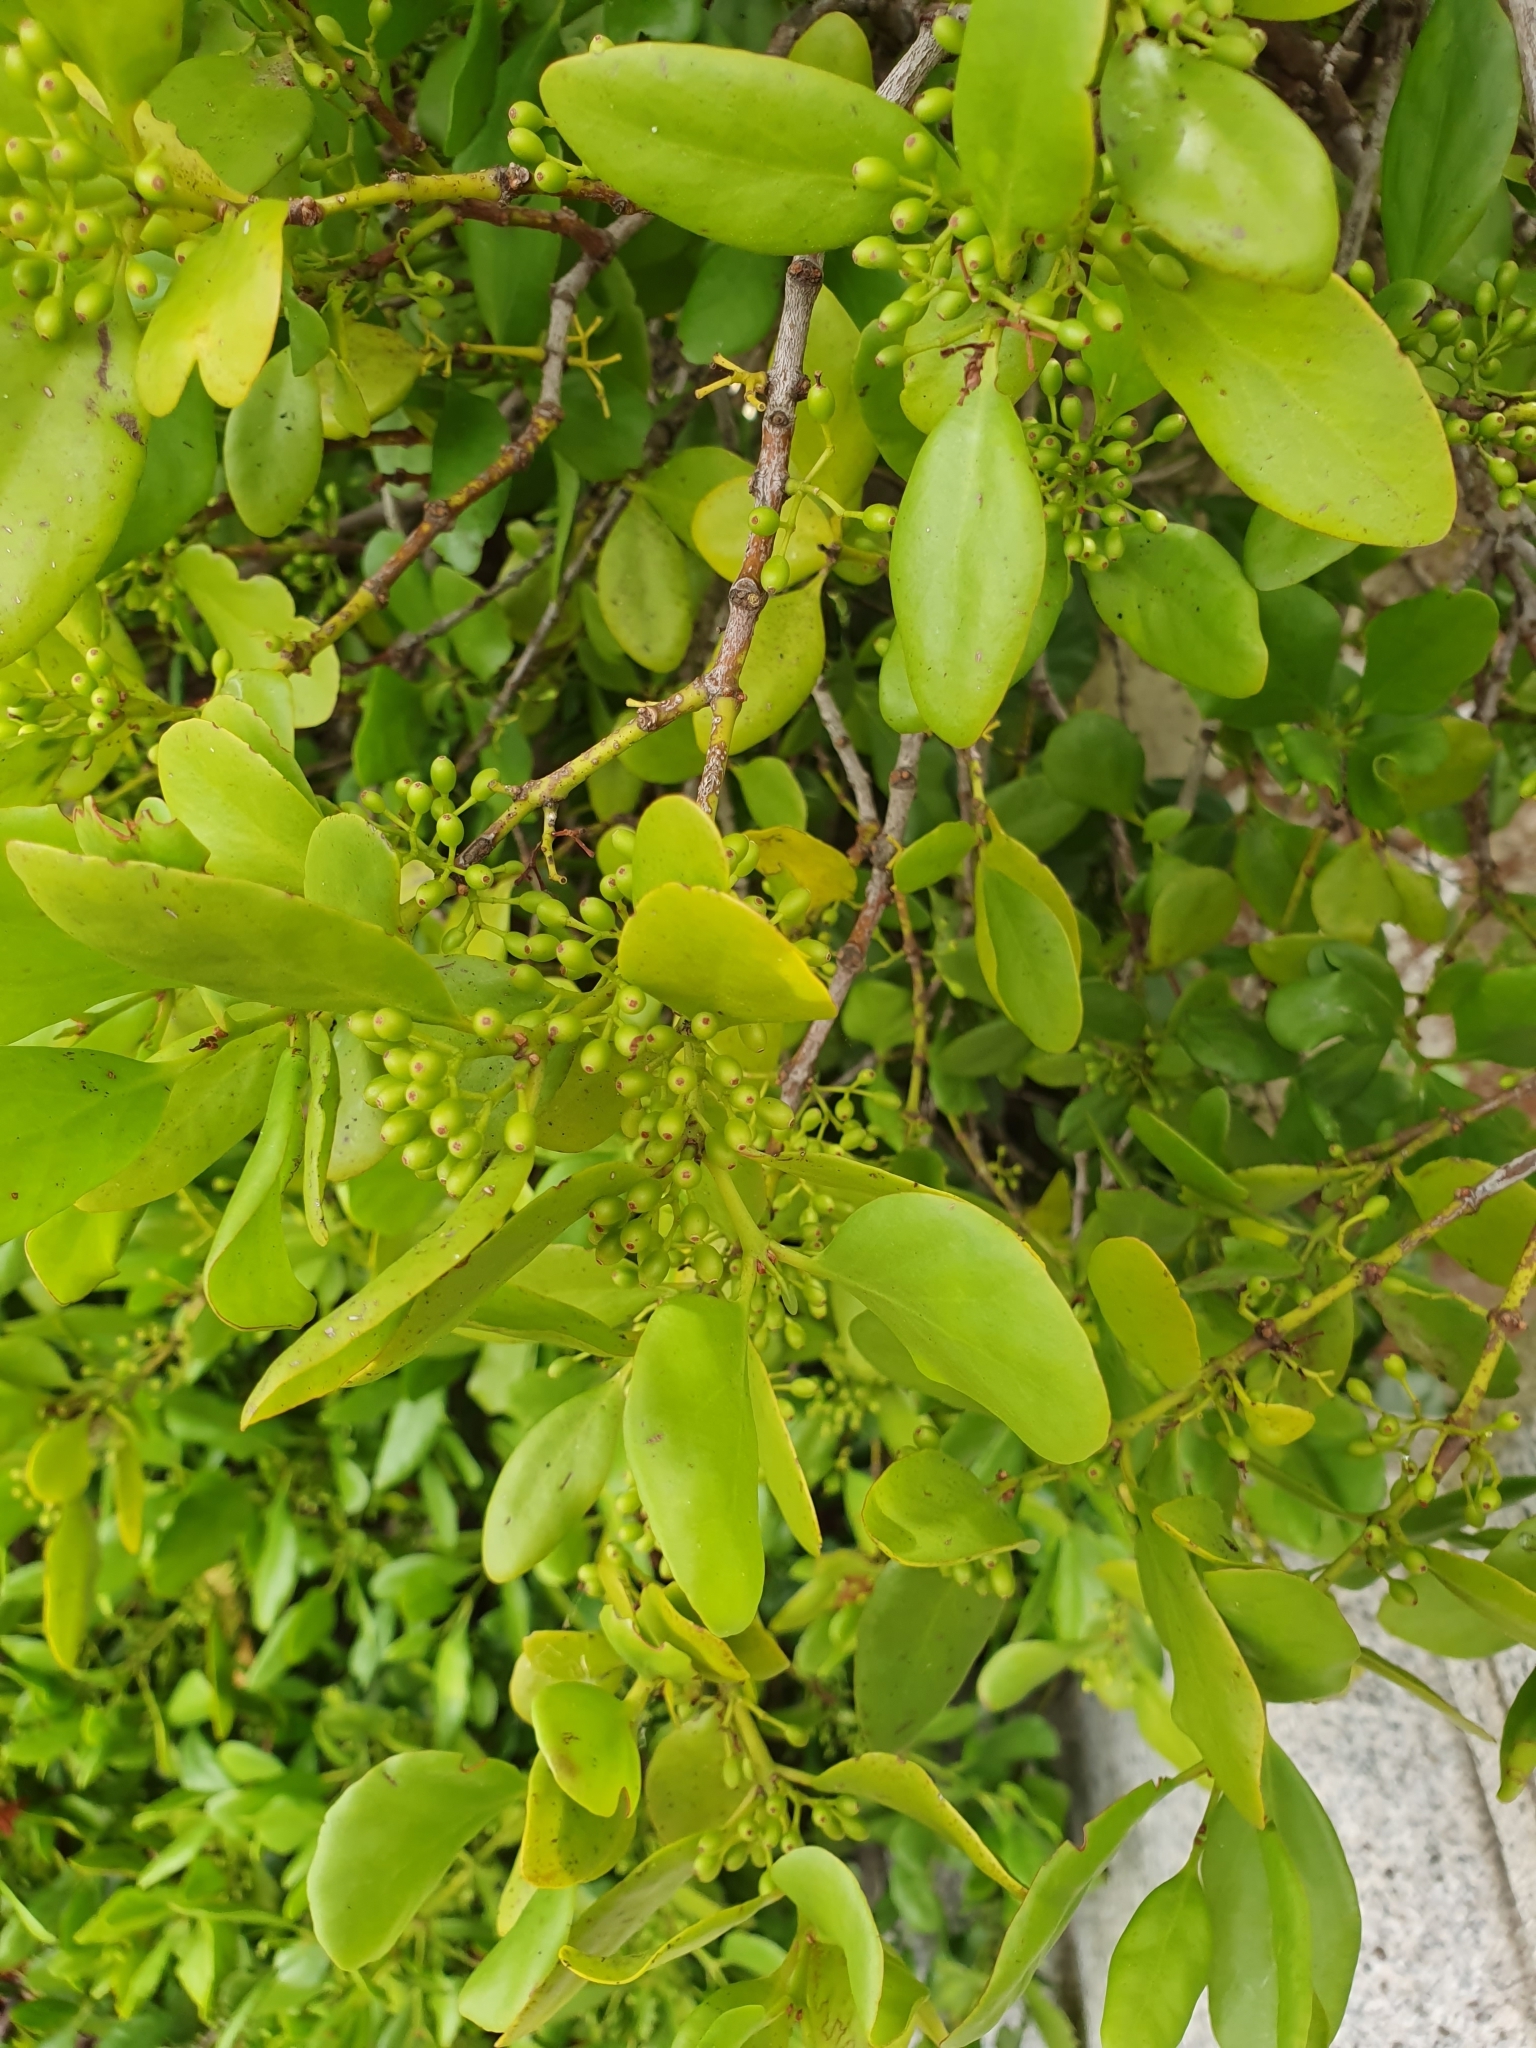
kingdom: Plantae
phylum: Tracheophyta
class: Magnoliopsida
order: Santalales
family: Loranthaceae
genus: Ileostylus
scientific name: Ileostylus micranthus
